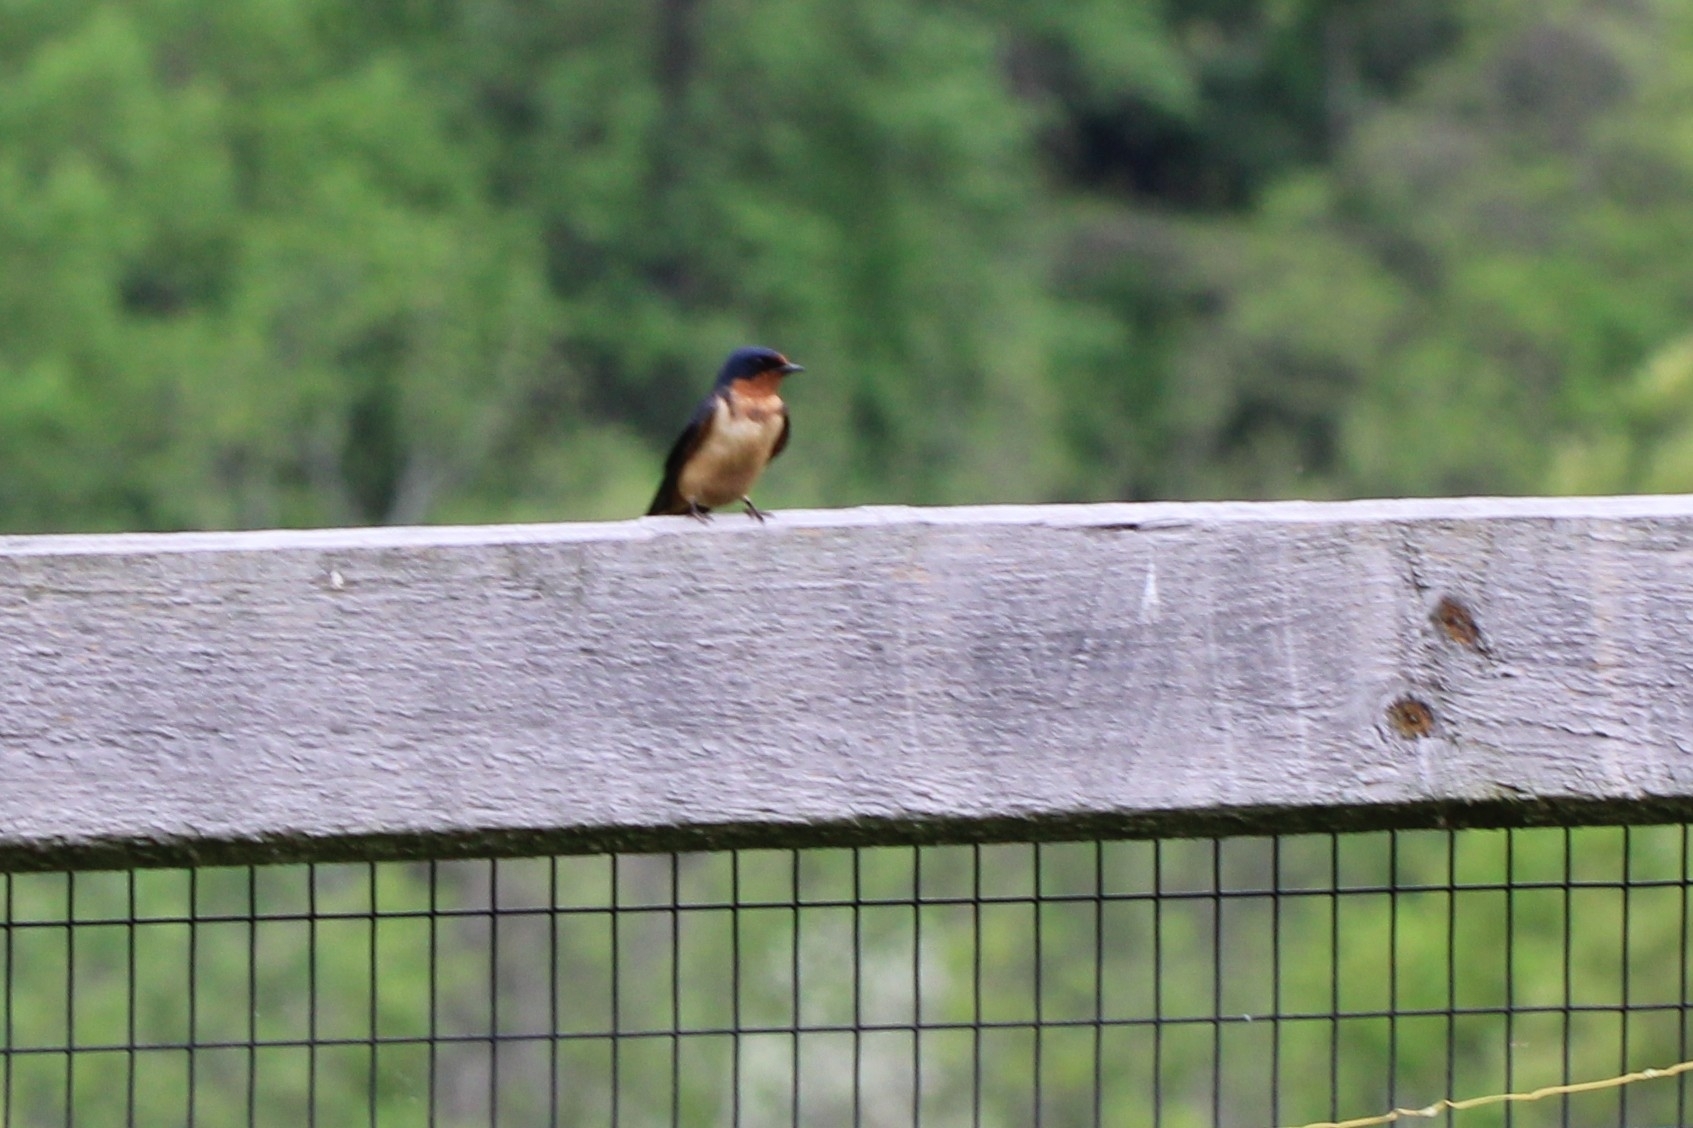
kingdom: Animalia
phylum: Chordata
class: Aves
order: Passeriformes
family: Hirundinidae
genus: Hirundo
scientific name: Hirundo rustica
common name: Barn swallow
